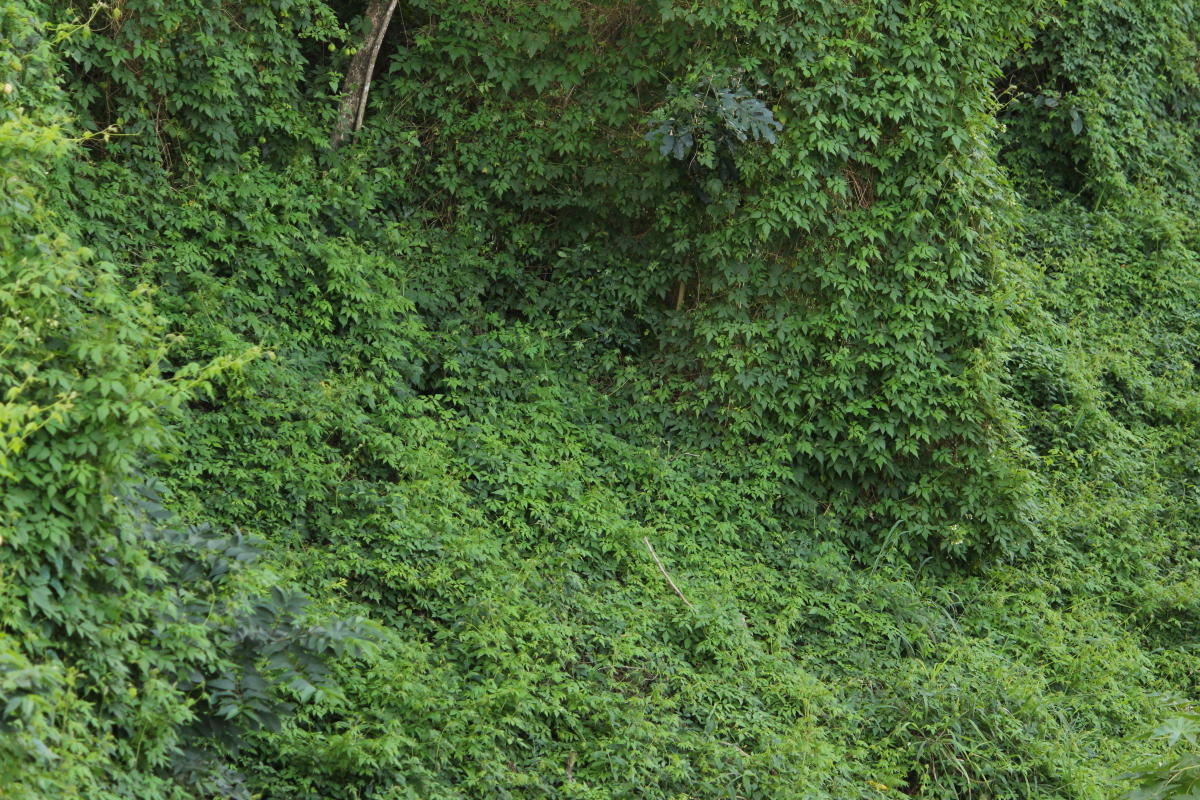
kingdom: Plantae
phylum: Tracheophyta
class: Magnoliopsida
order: Sapindales
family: Sapindaceae
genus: Cardiospermum
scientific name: Cardiospermum grandiflorum
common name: Balloon vine
